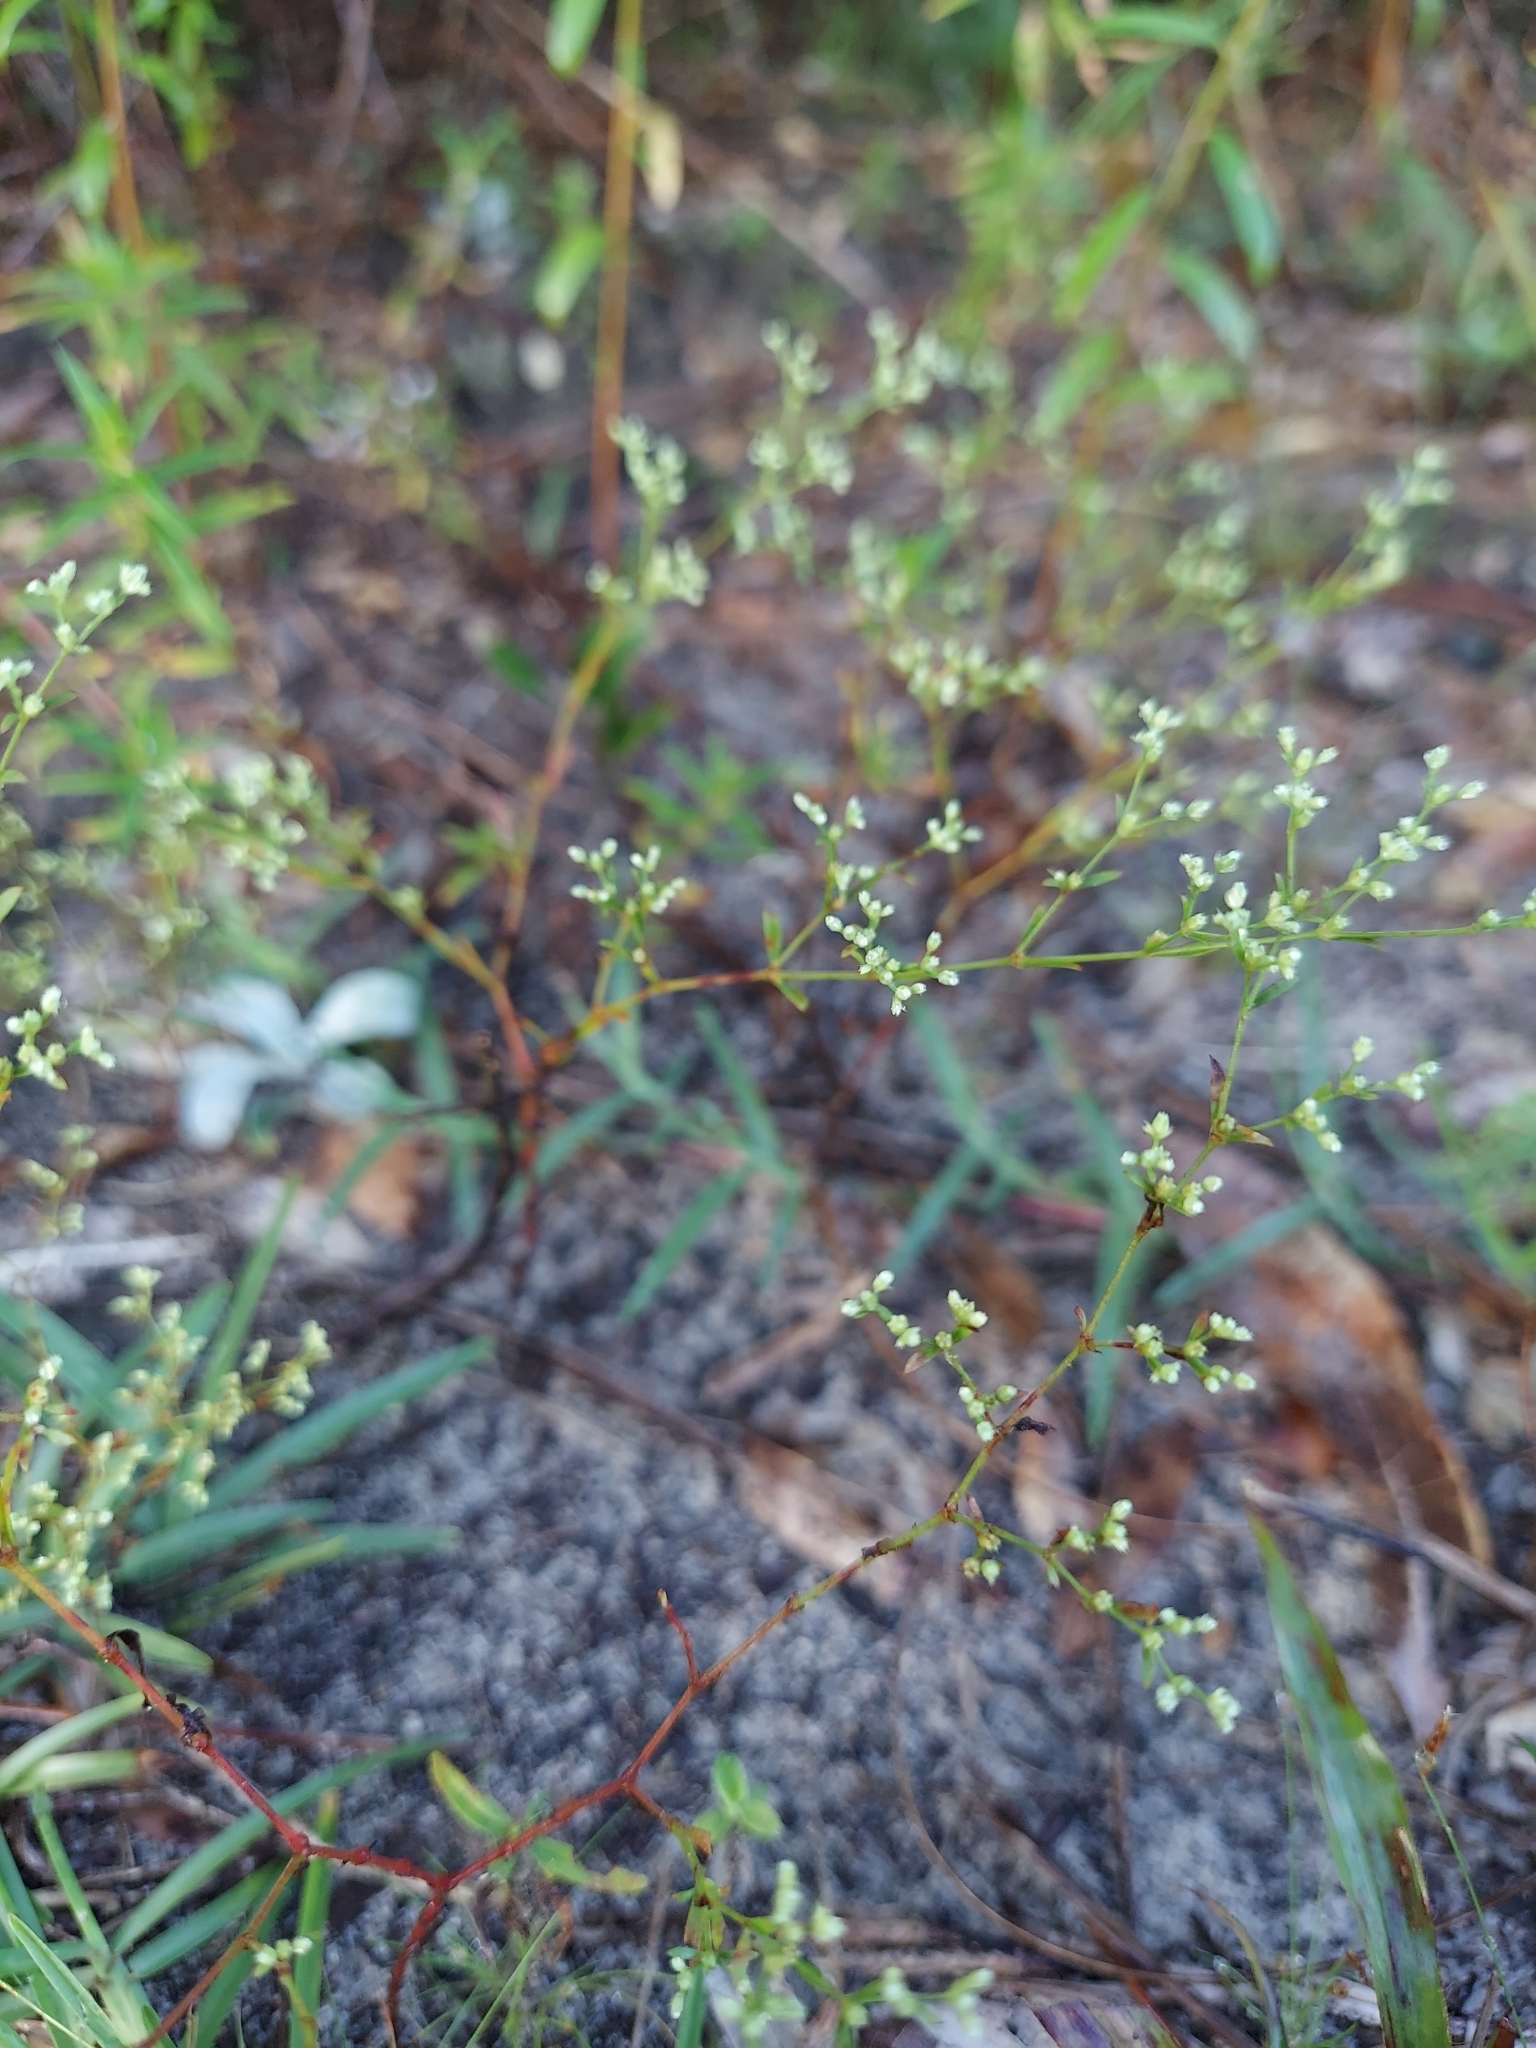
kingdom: Plantae
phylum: Tracheophyta
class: Magnoliopsida
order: Caryophyllales
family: Caryophyllaceae
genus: Paronychia
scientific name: Paronychia
